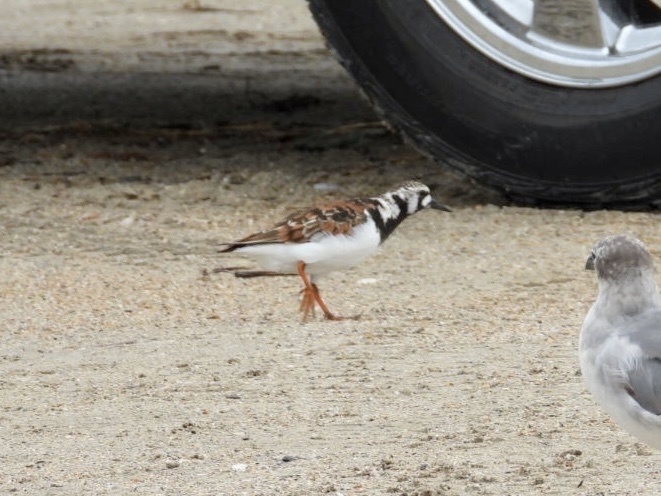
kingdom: Animalia
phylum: Chordata
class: Aves
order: Charadriiformes
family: Scolopacidae
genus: Arenaria
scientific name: Arenaria interpres
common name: Ruddy turnstone
